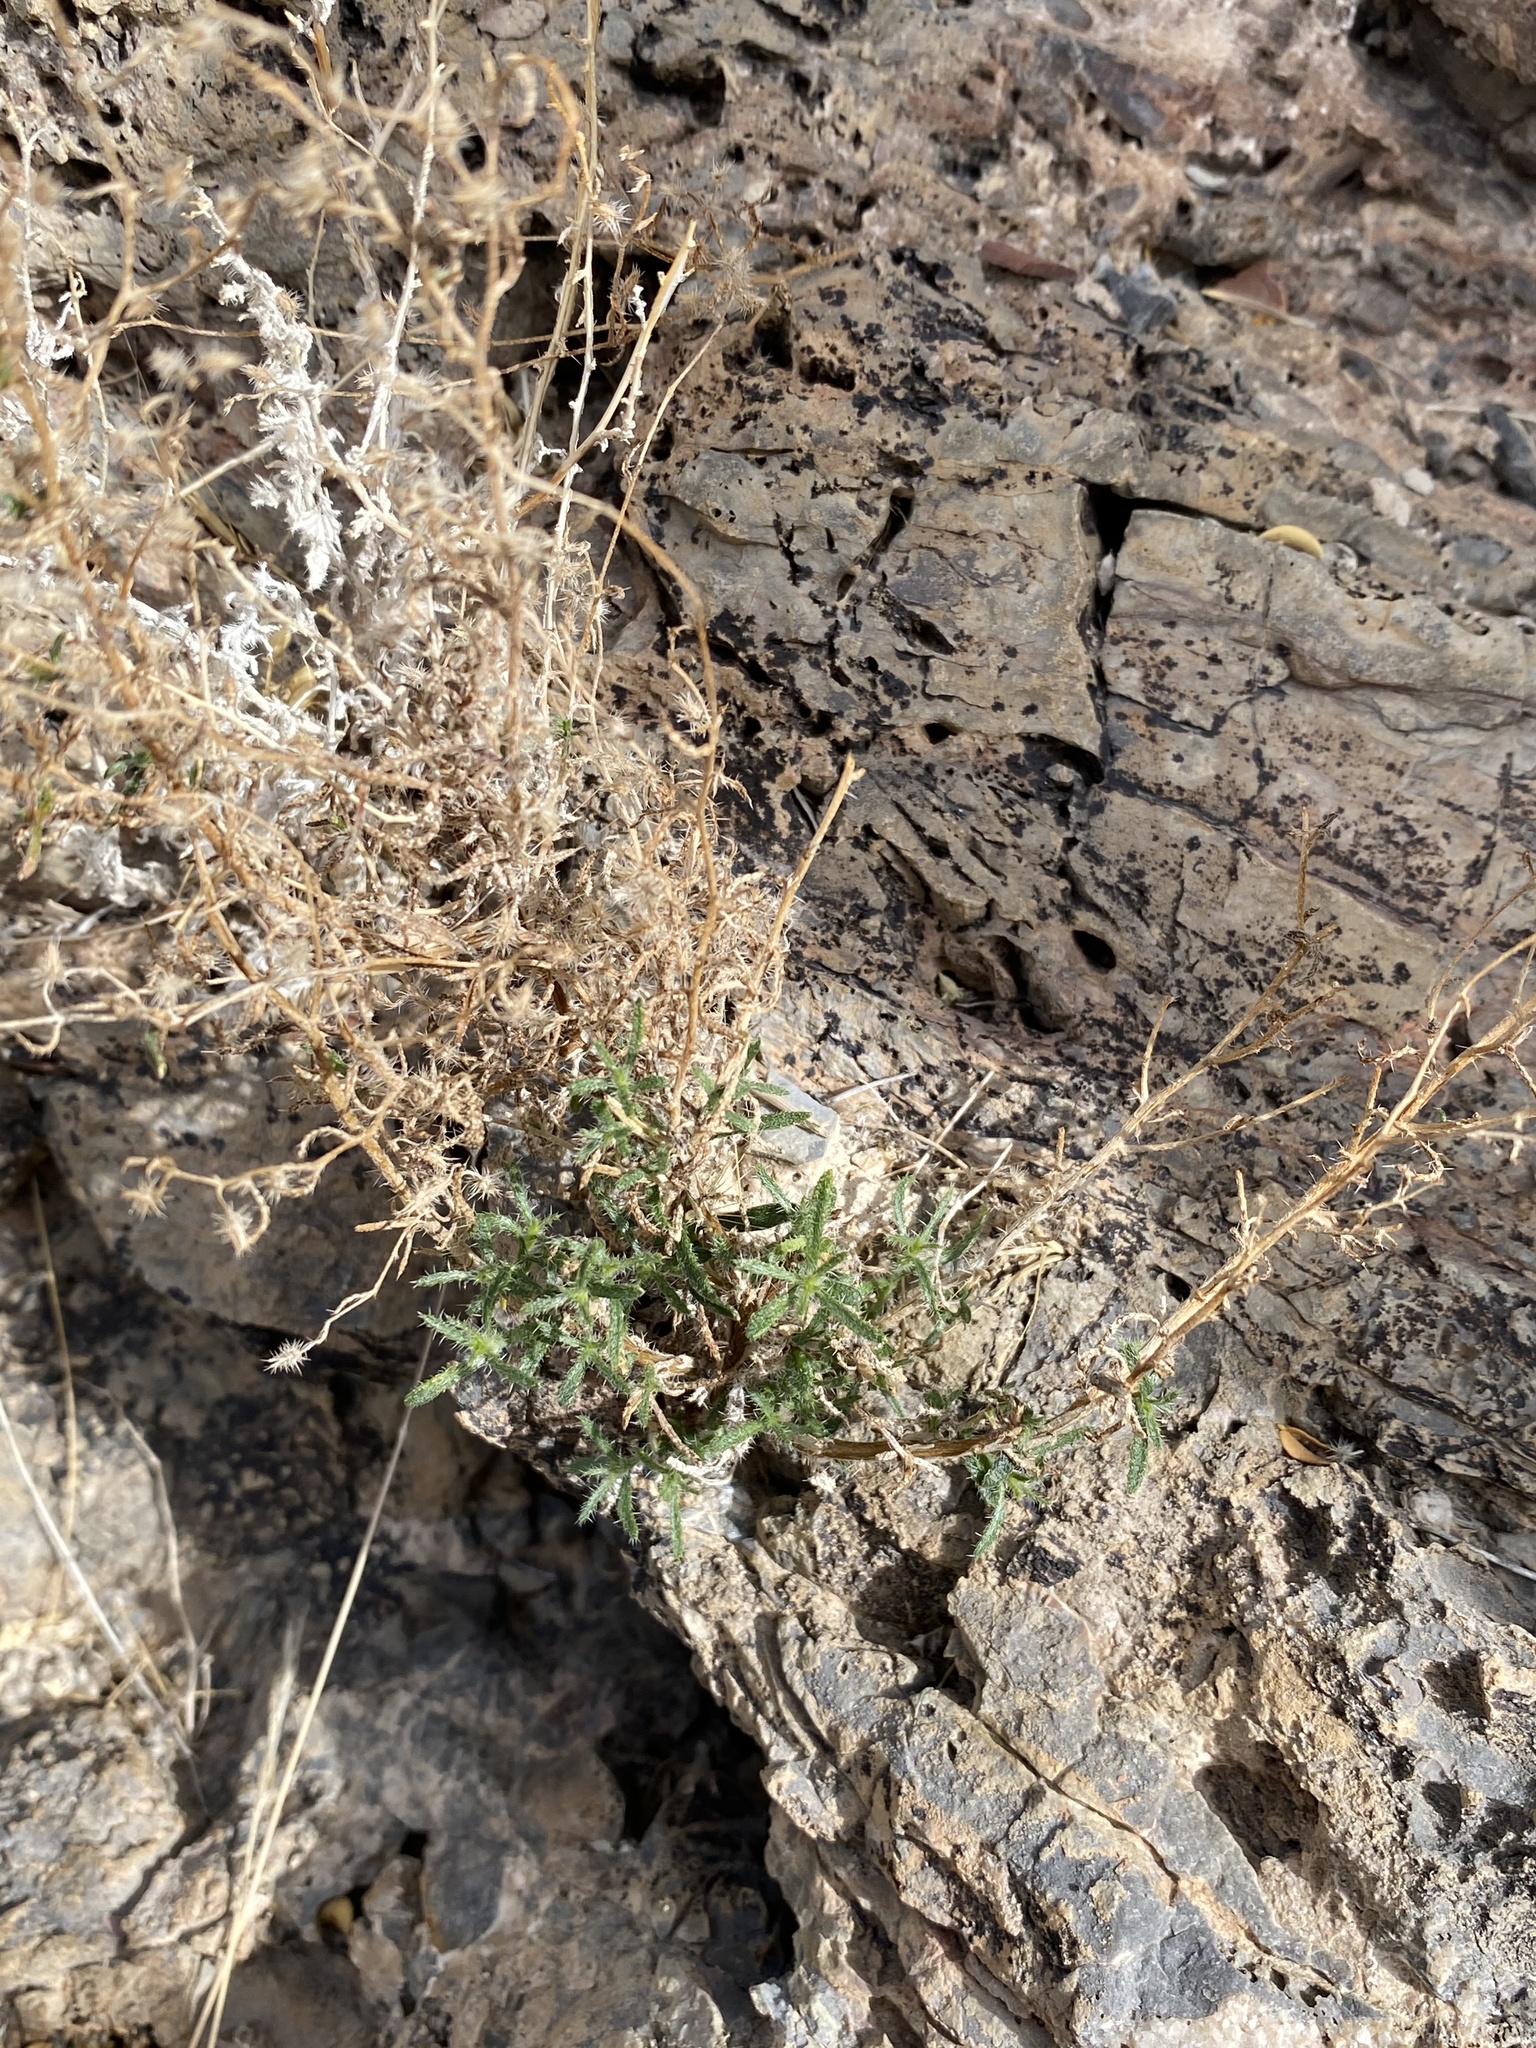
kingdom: Plantae
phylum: Tracheophyta
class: Magnoliopsida
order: Boraginales
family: Boraginaceae
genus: Johnstonella
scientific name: Johnstonella racemosa
